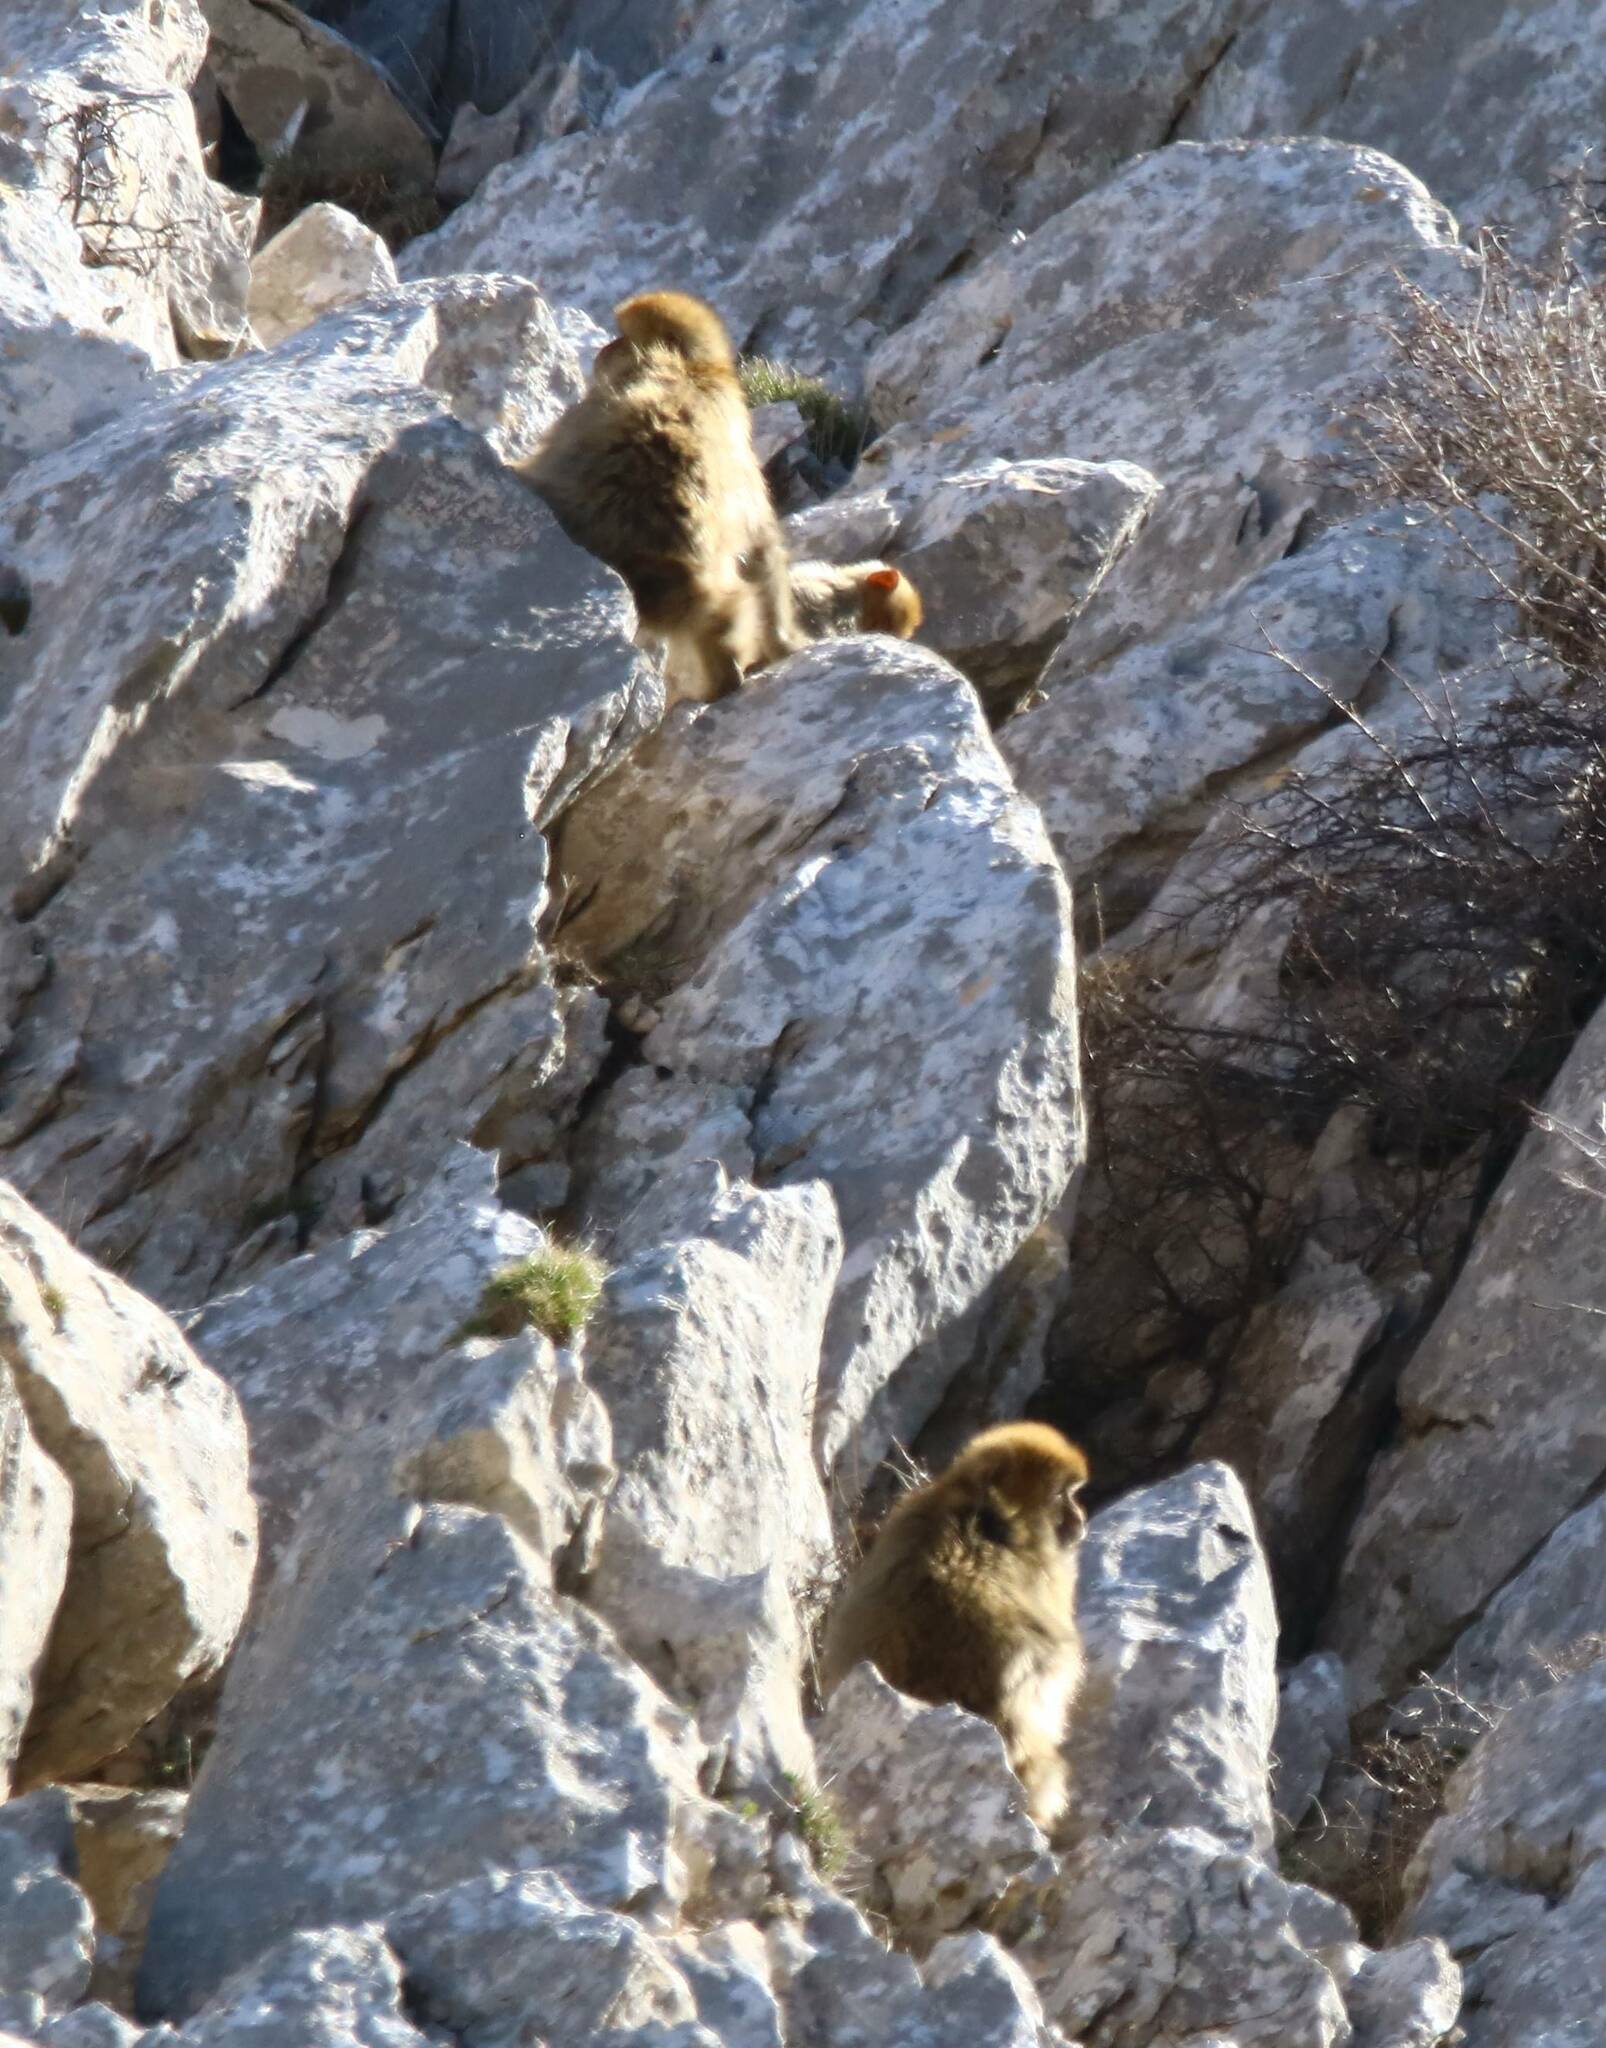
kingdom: Animalia
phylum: Chordata
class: Mammalia
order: Primates
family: Cercopithecidae
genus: Macaca
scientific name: Macaca sylvanus
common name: Barbary macaque
